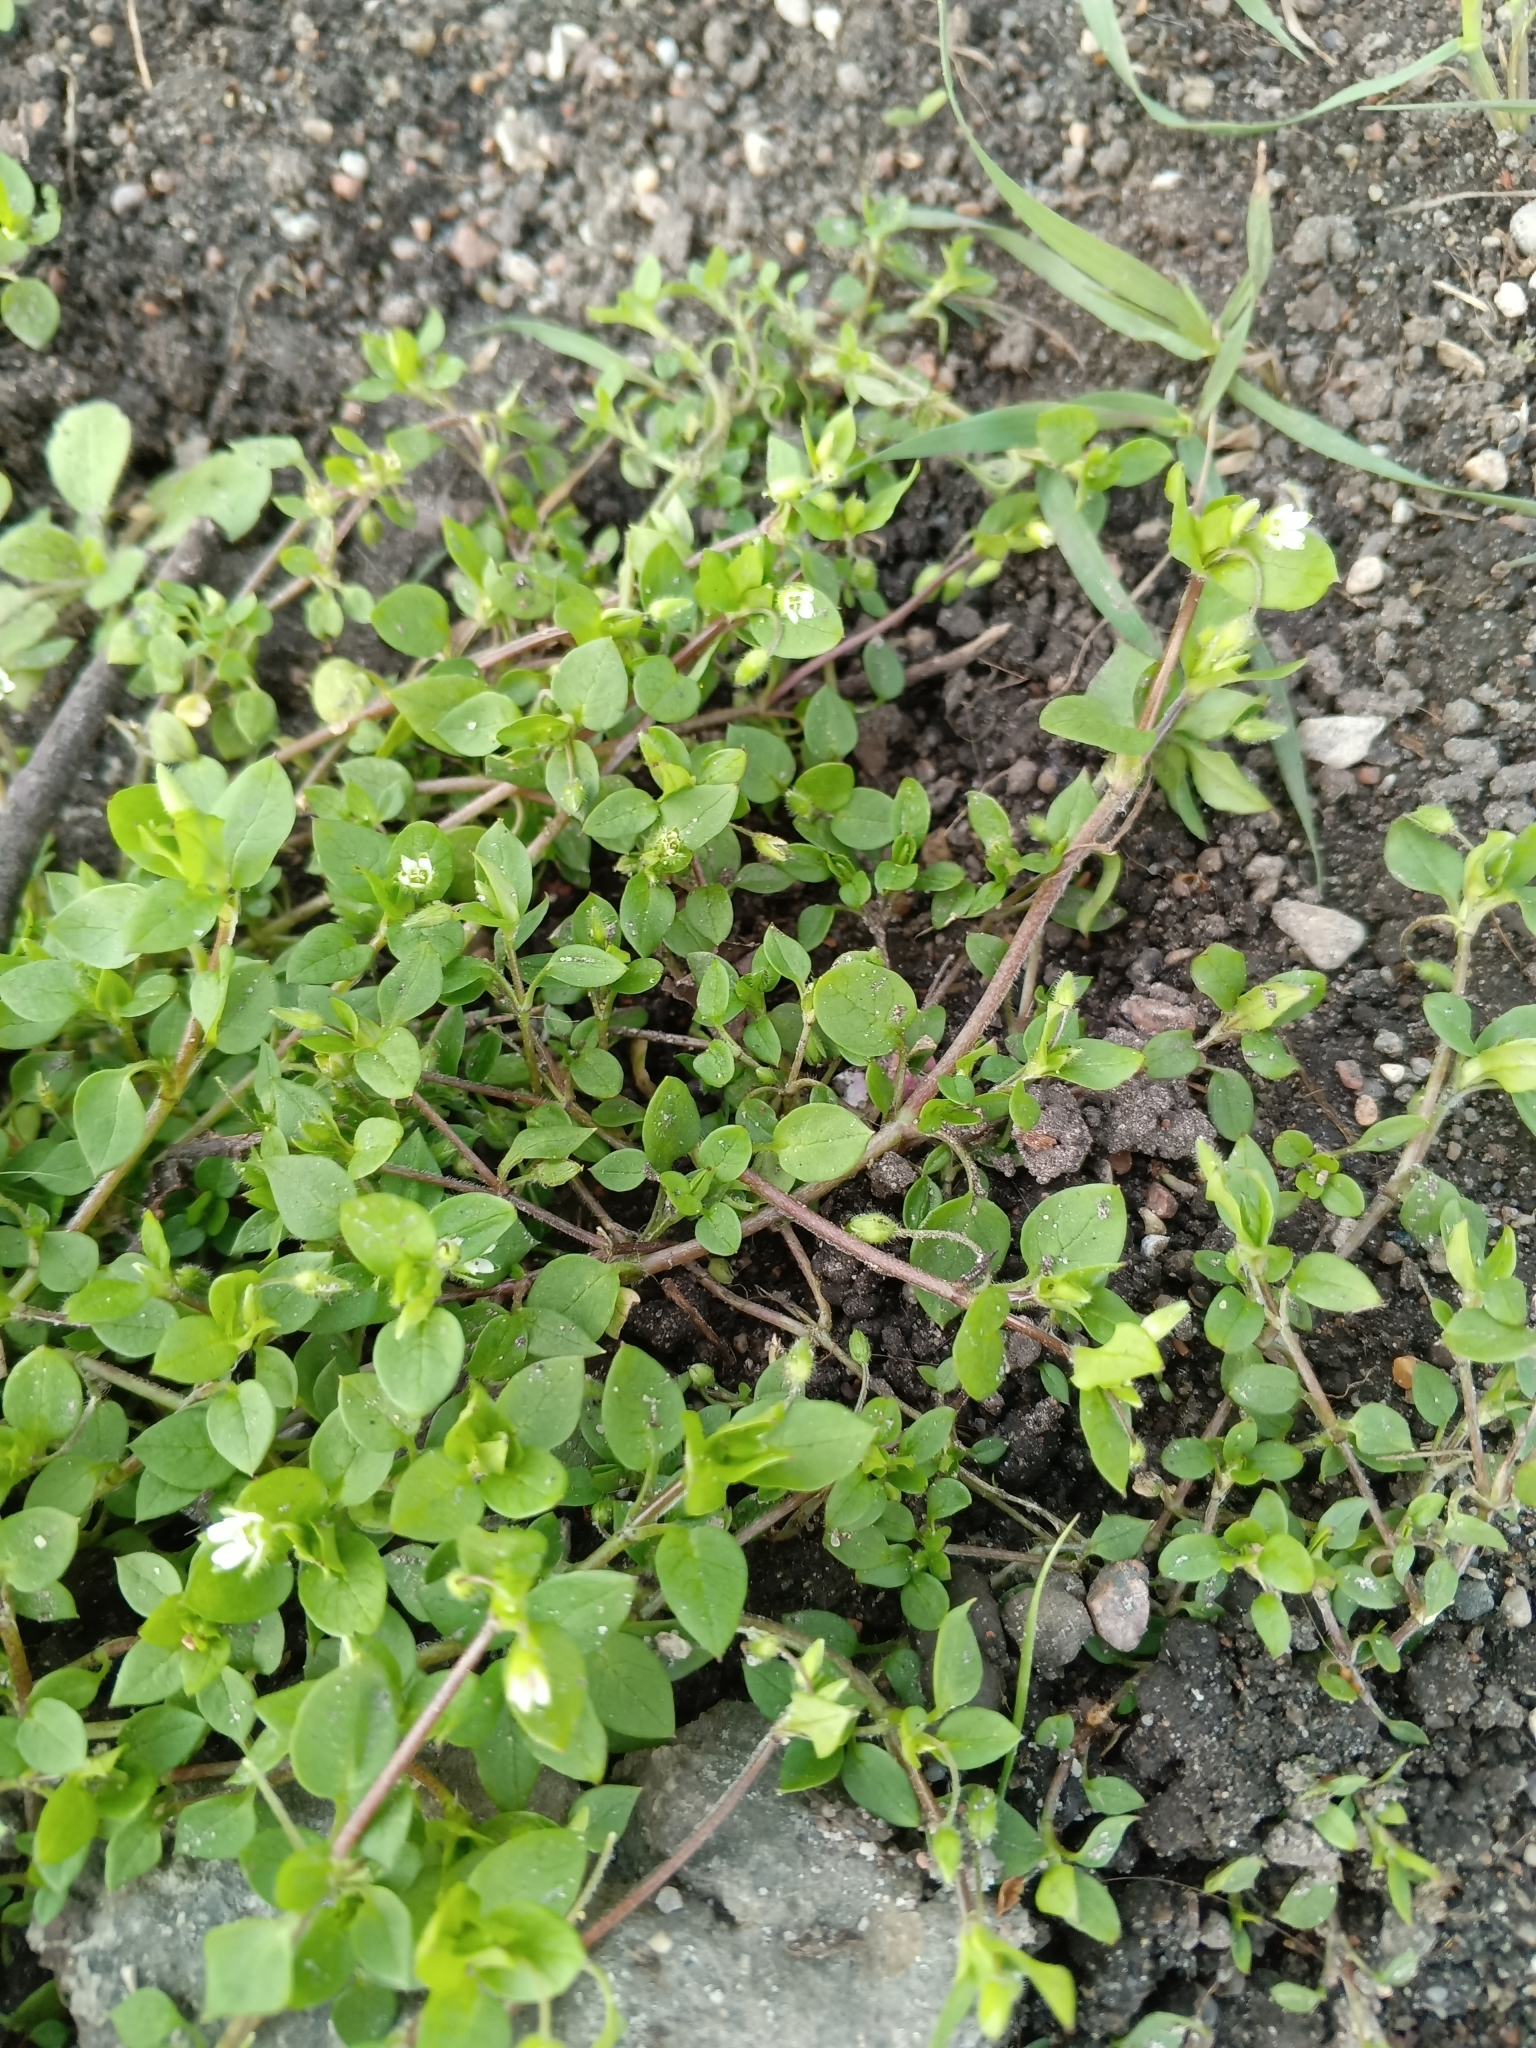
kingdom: Plantae
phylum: Tracheophyta
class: Magnoliopsida
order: Caryophyllales
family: Caryophyllaceae
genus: Stellaria
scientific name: Stellaria media
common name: Common chickweed
